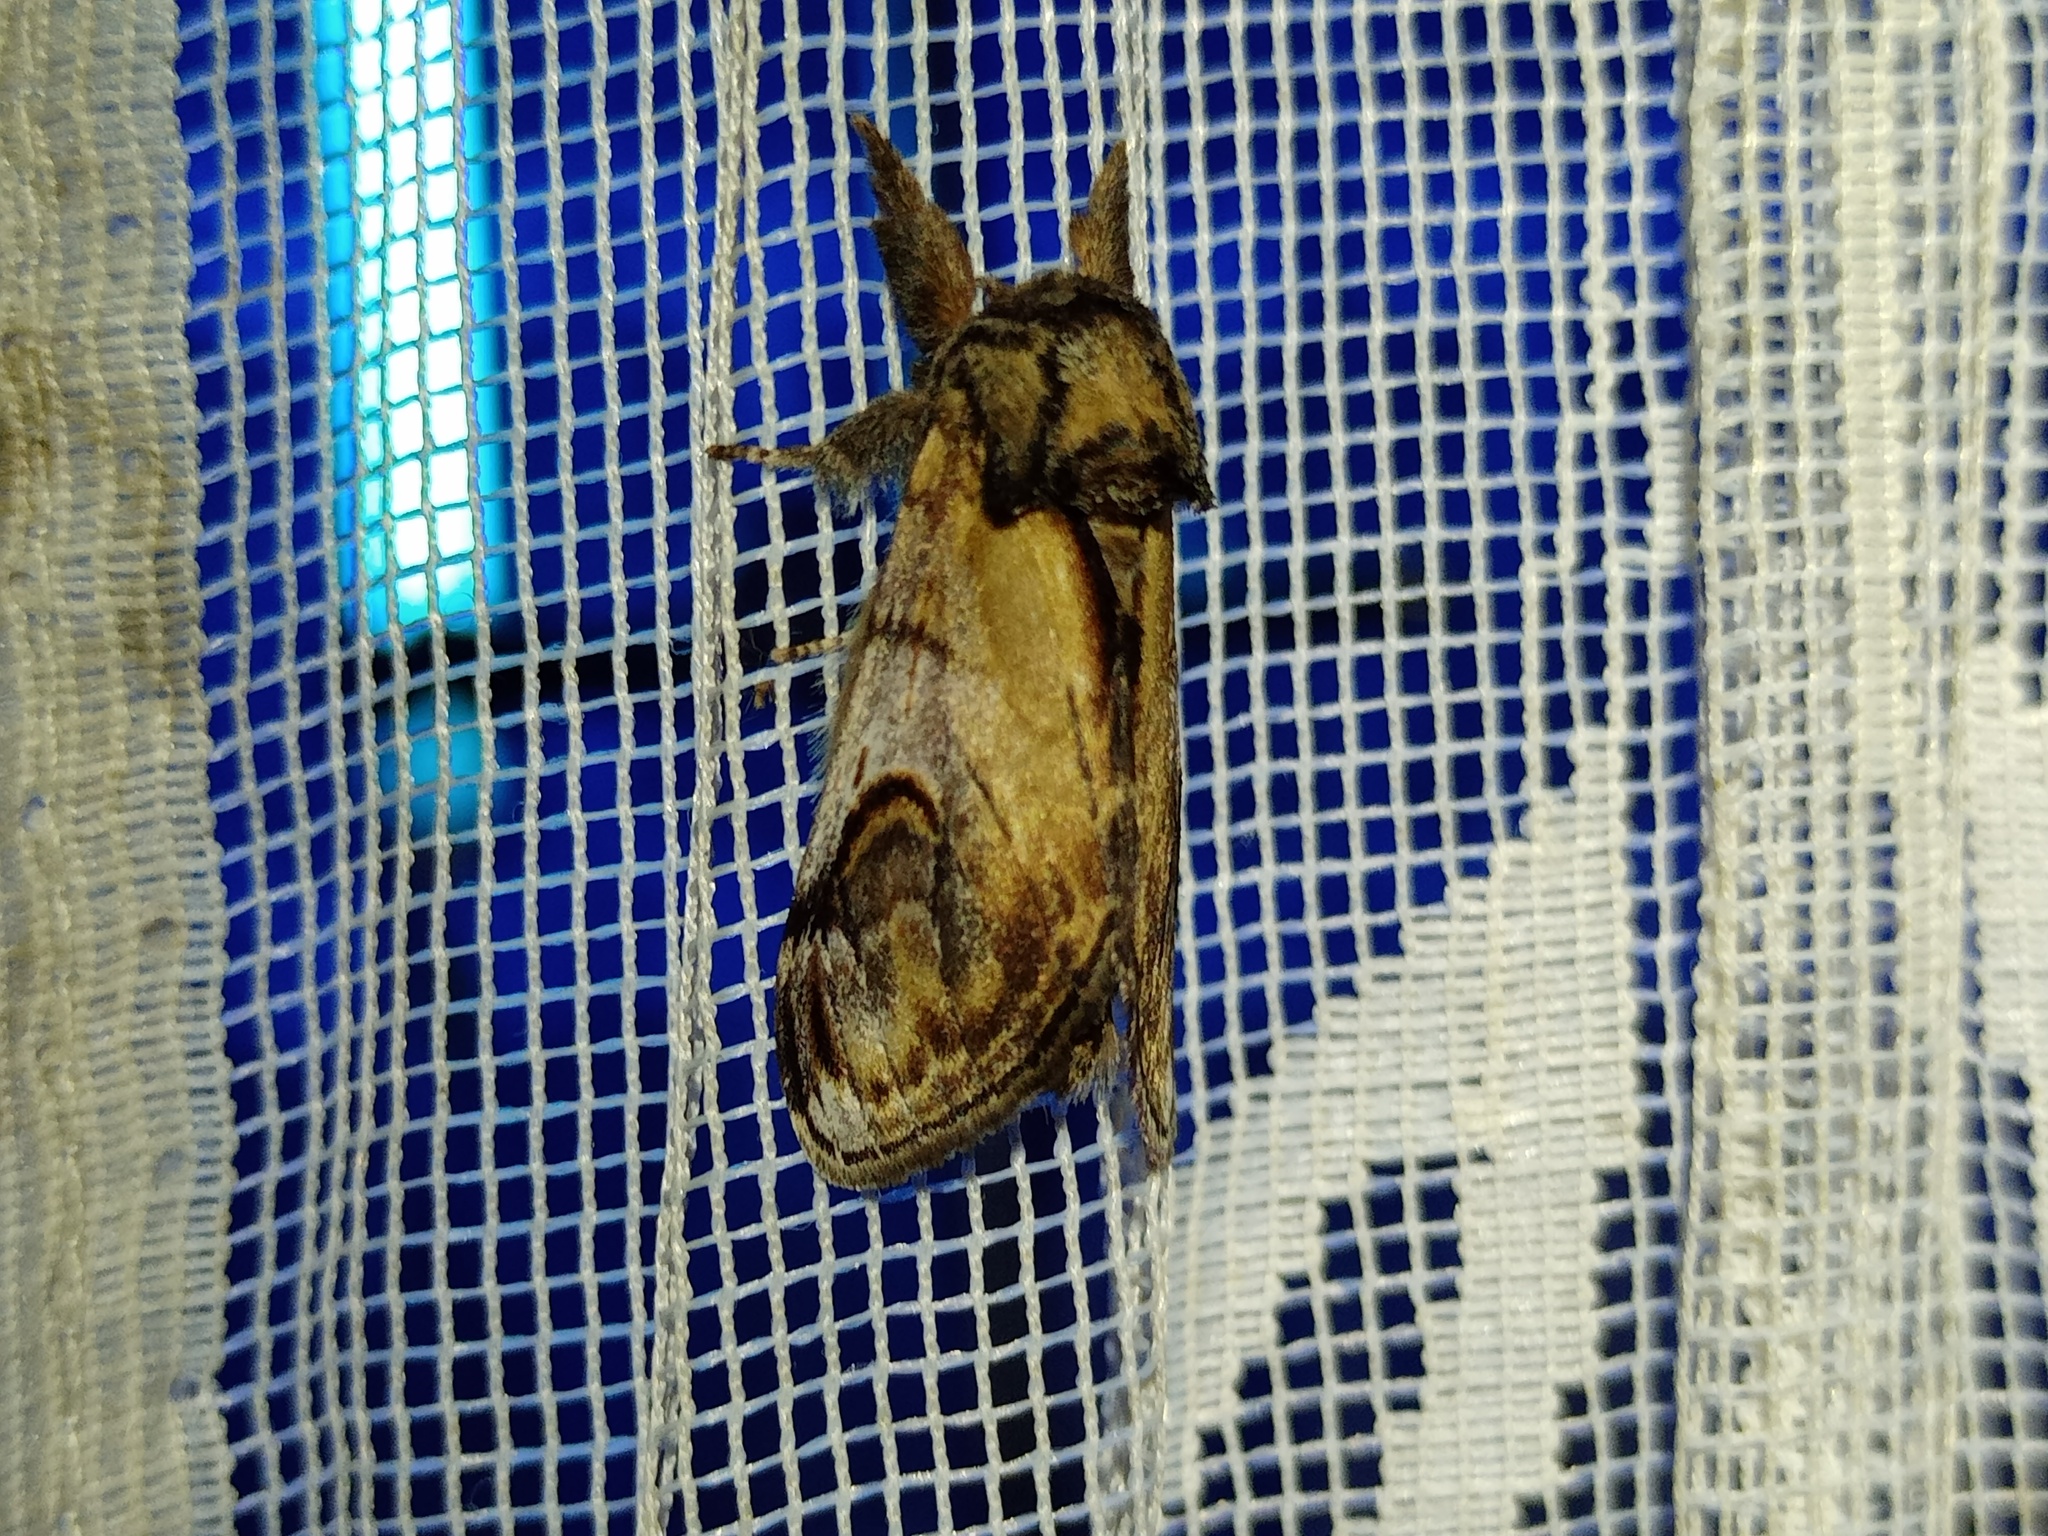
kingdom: Animalia
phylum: Arthropoda
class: Insecta
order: Lepidoptera
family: Notodontidae
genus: Notodonta
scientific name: Notodonta ziczac
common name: Pebble prominent
